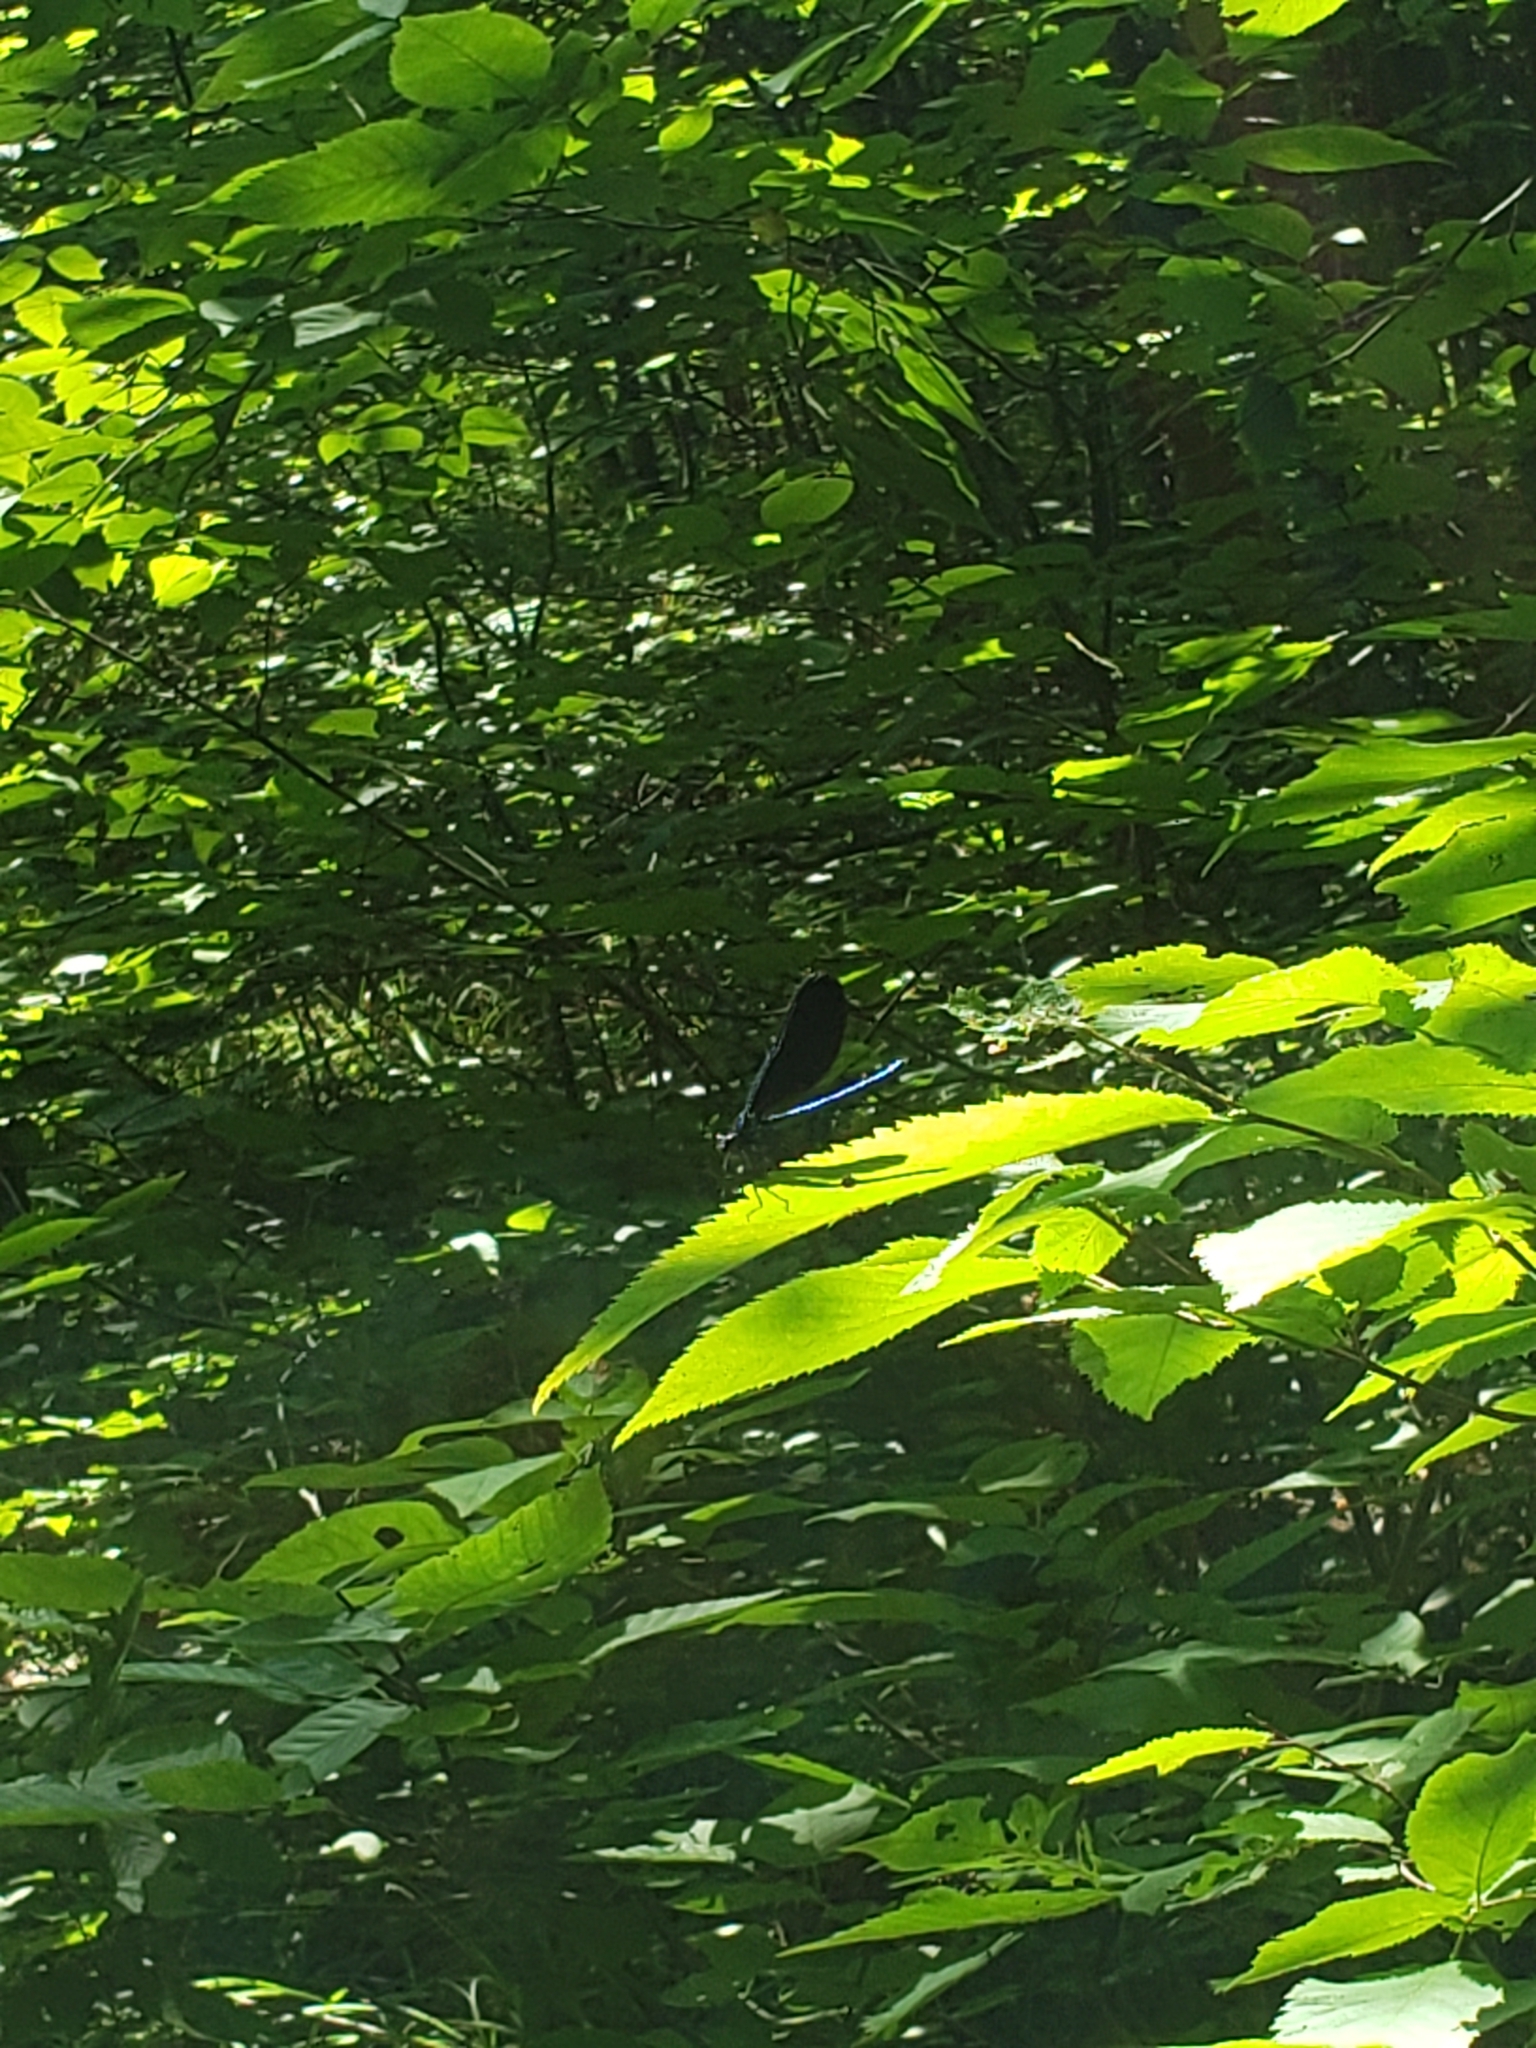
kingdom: Animalia
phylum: Arthropoda
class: Insecta
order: Odonata
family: Calopterygidae
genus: Calopteryx
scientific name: Calopteryx maculata
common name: Ebony jewelwing
